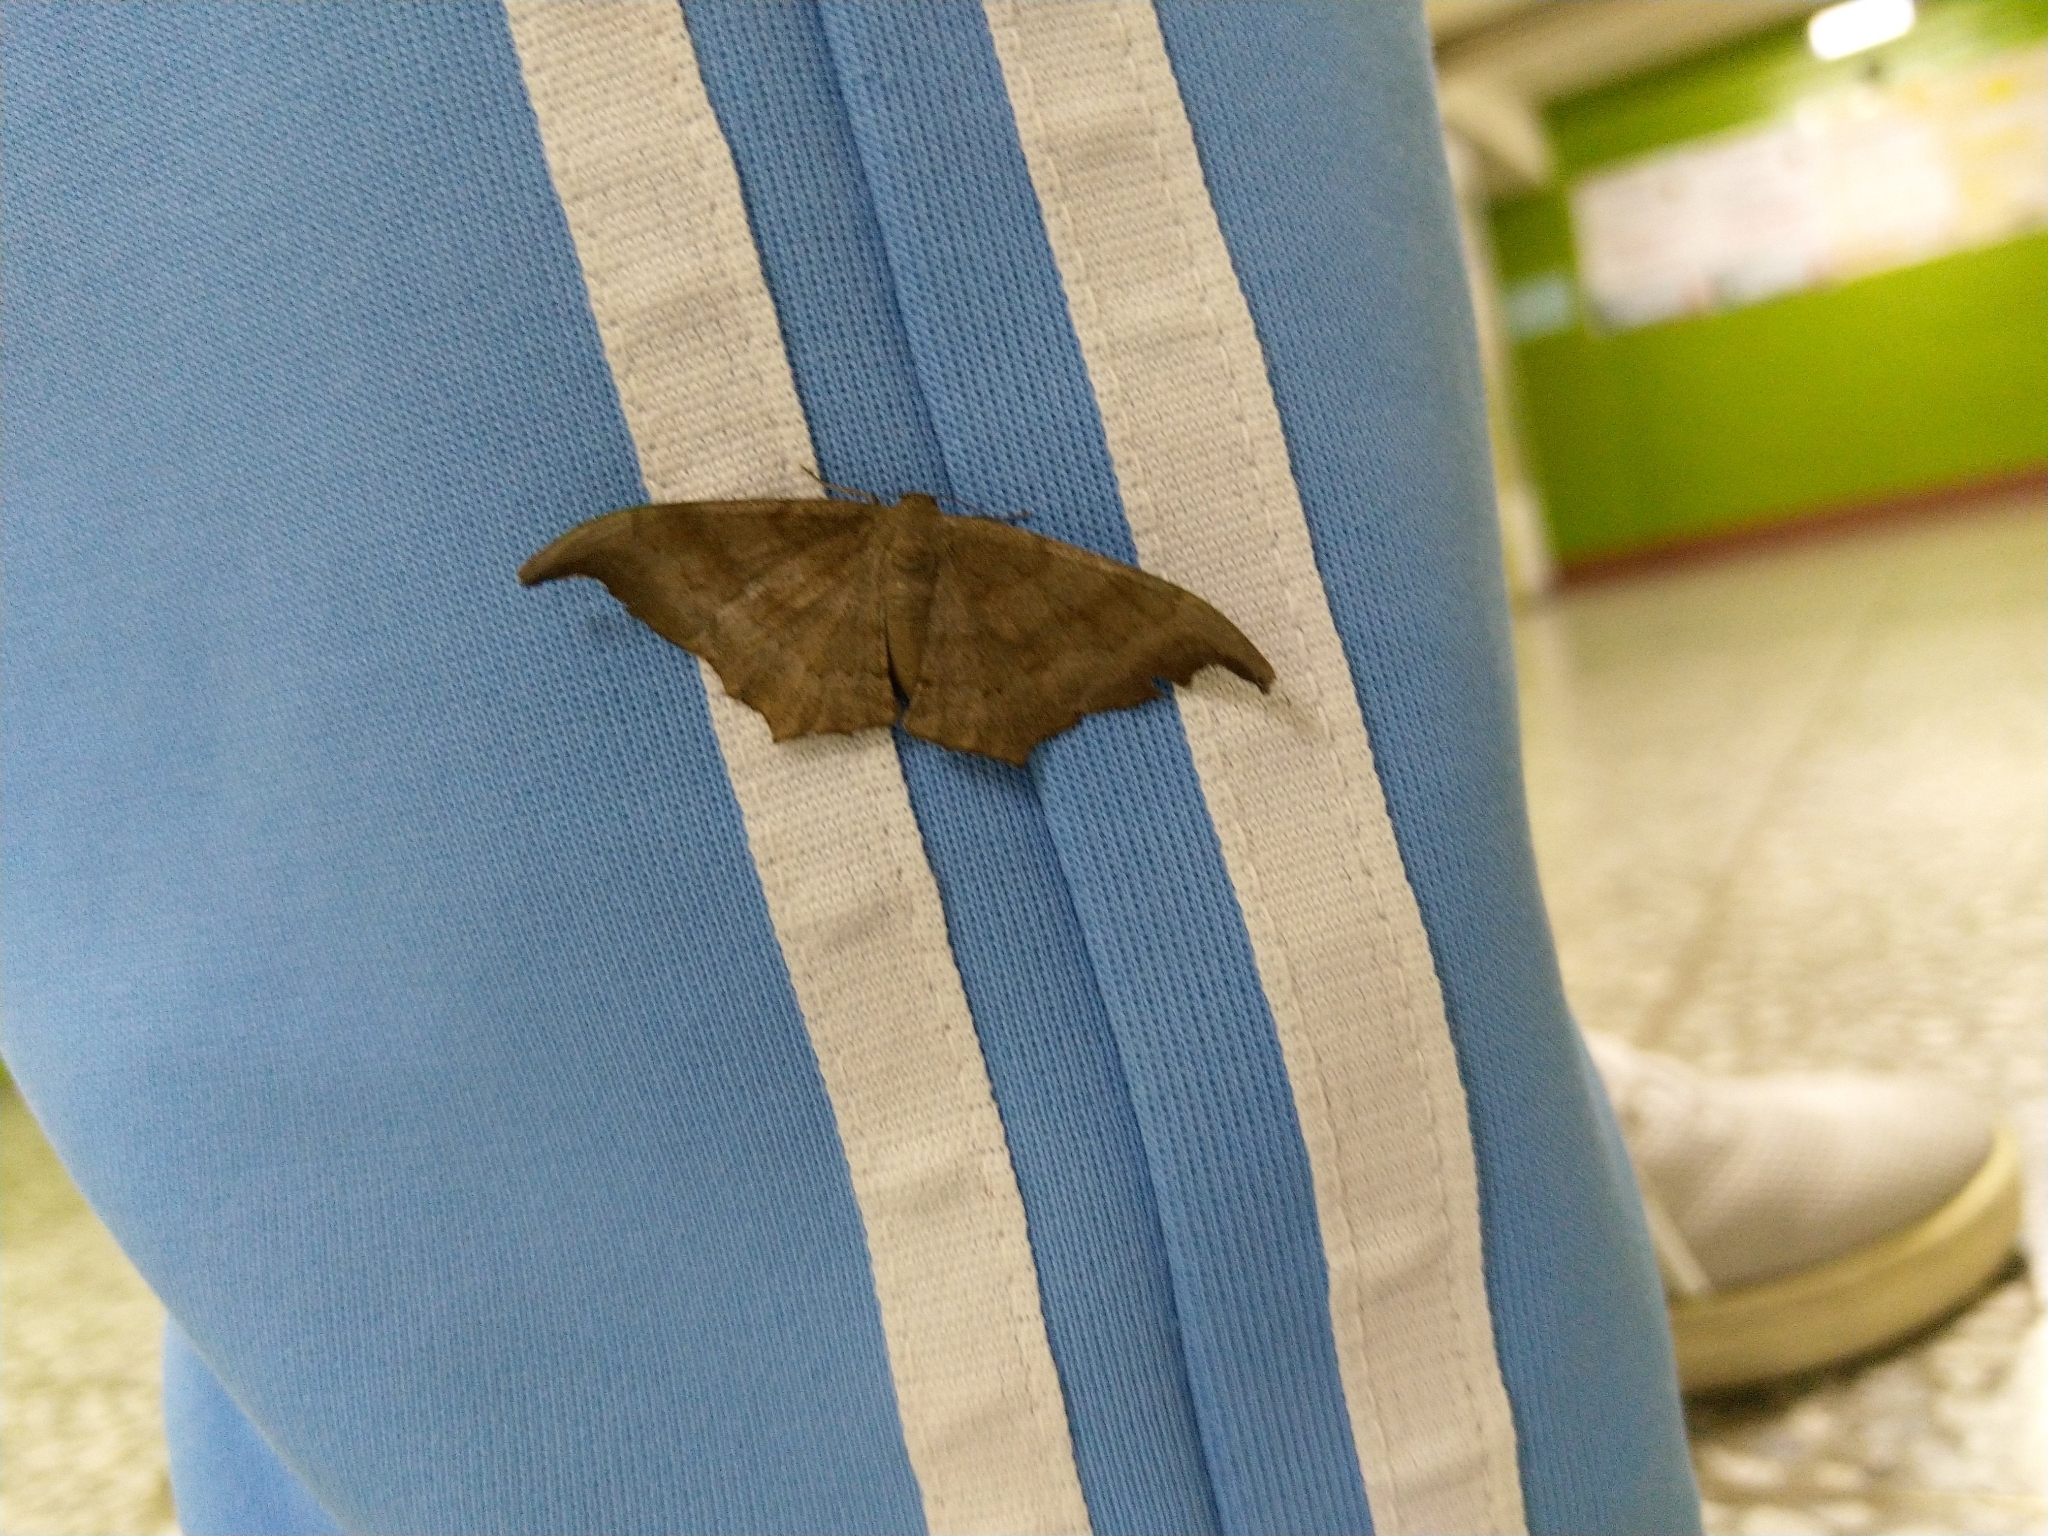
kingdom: Animalia
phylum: Arthropoda
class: Insecta
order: Lepidoptera
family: Geometridae
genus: Hyposidra
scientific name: Hyposidra talaca
